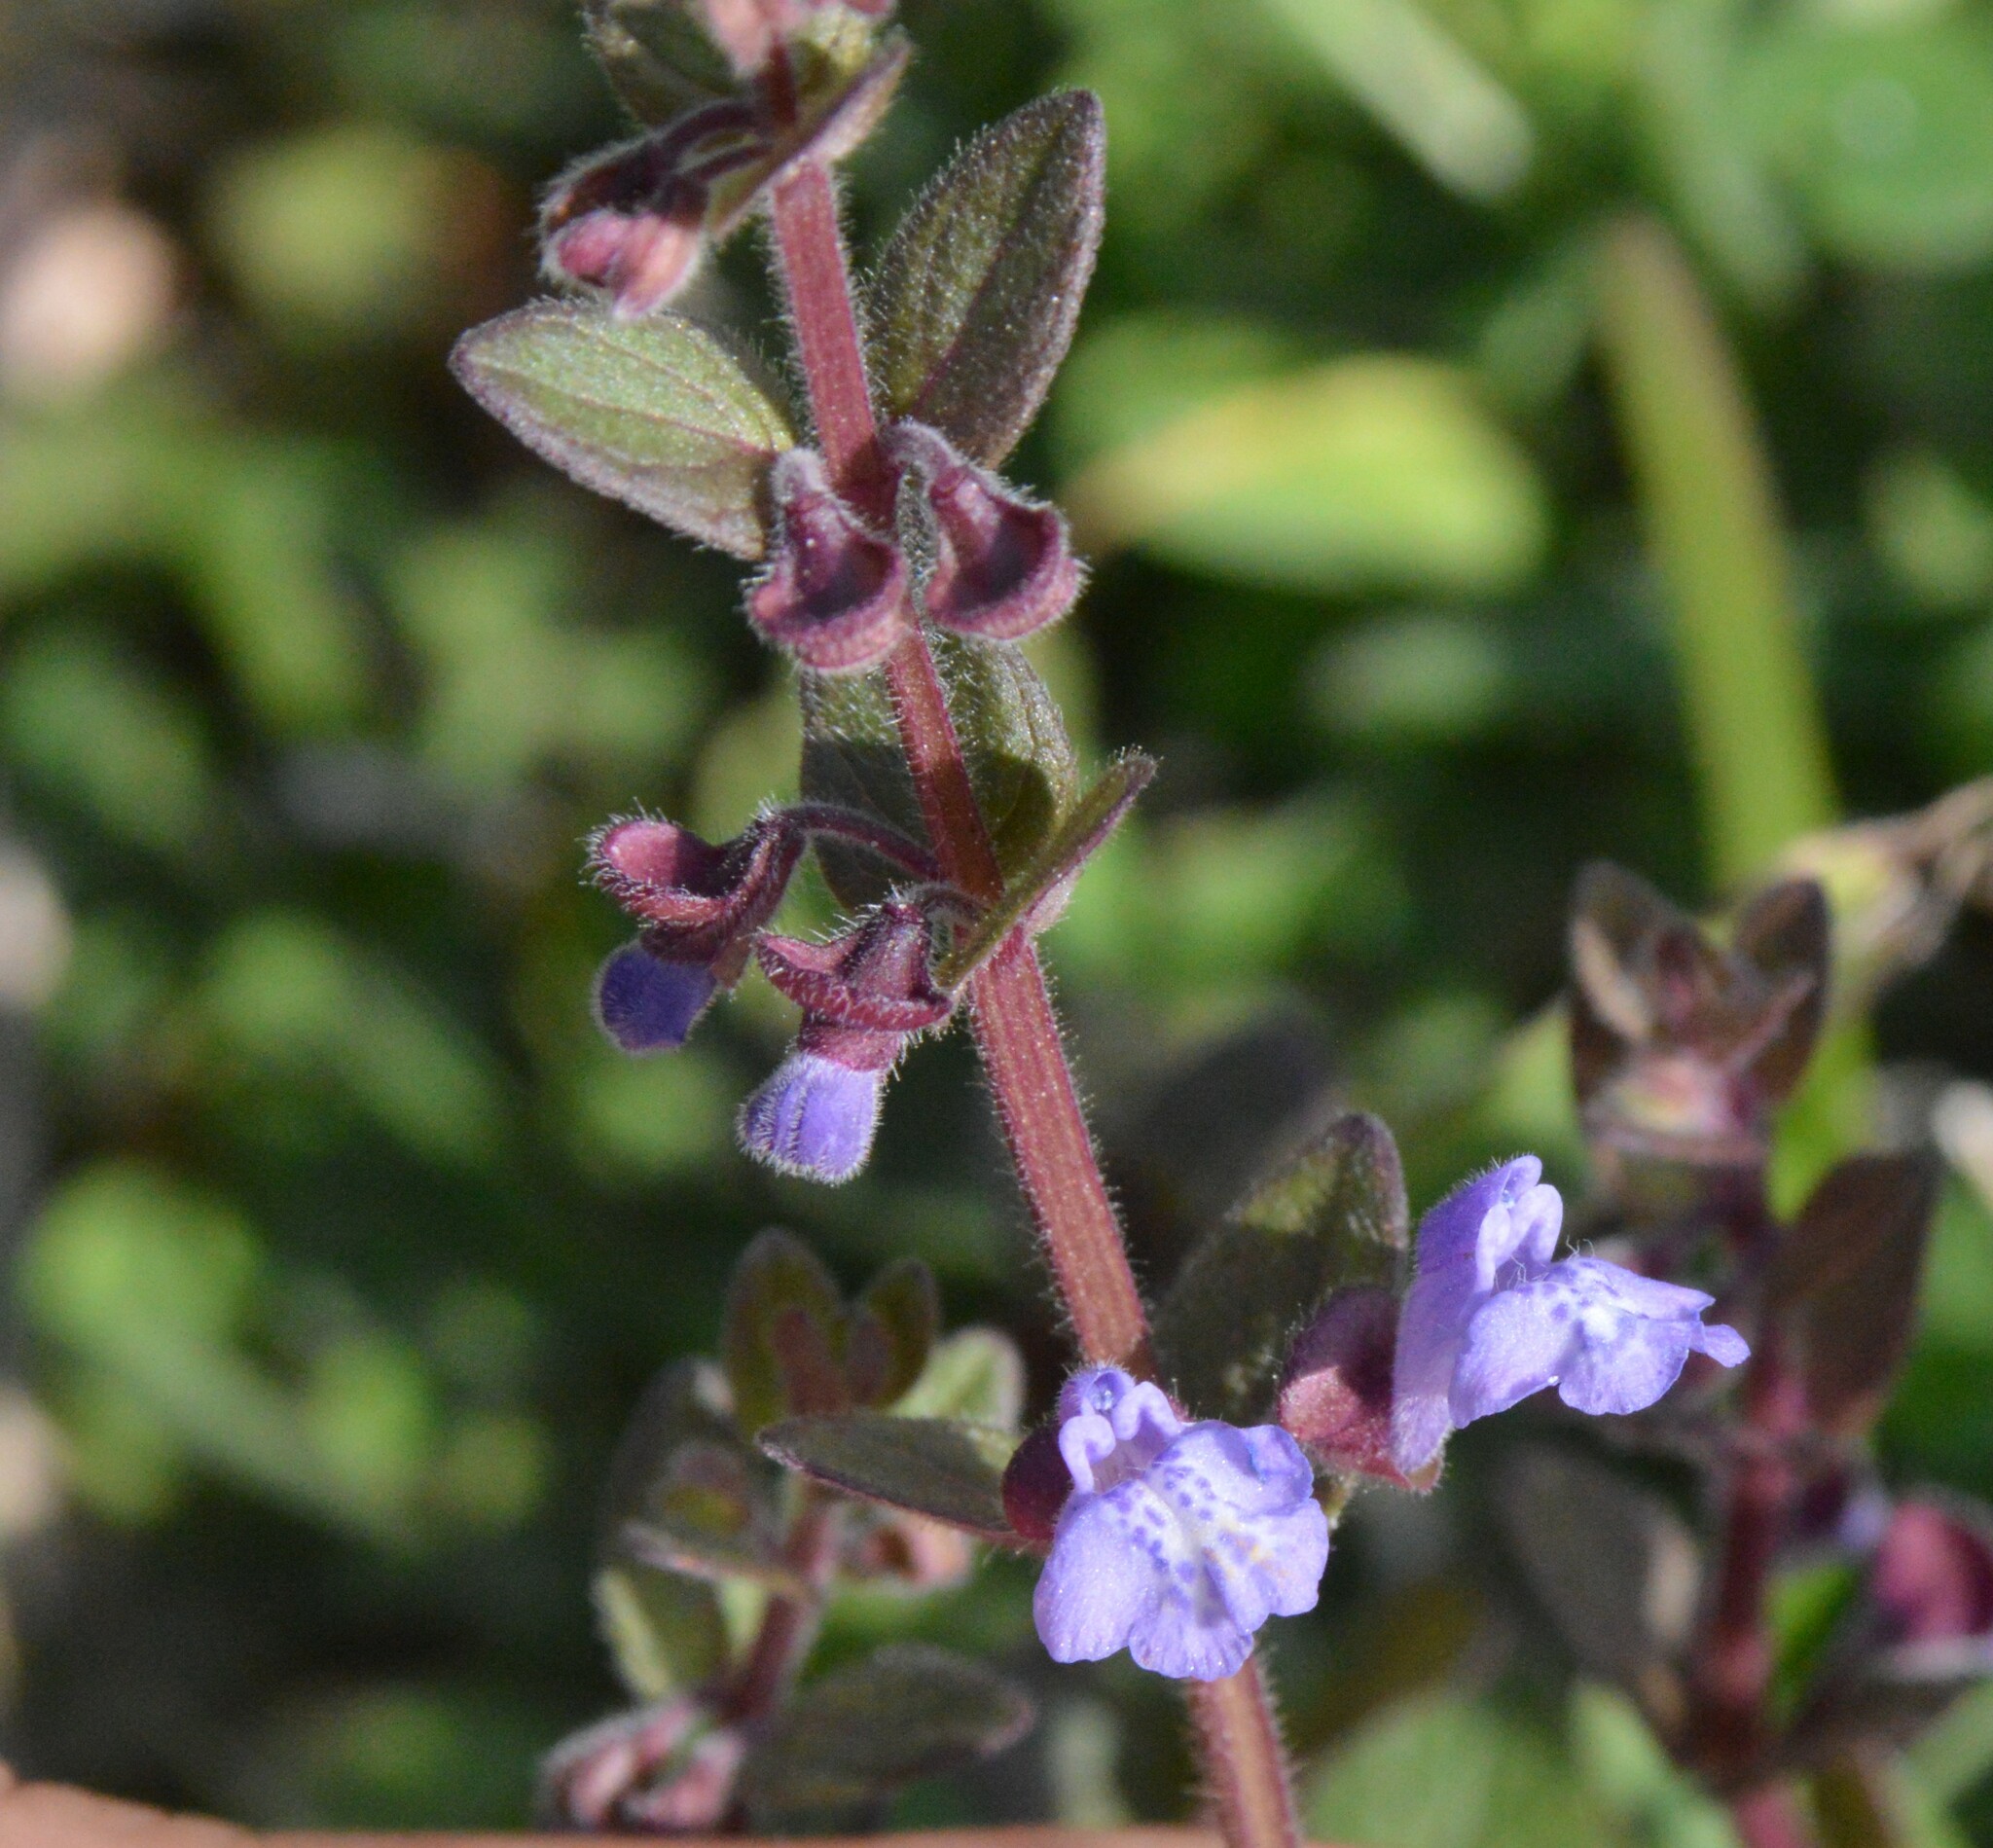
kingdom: Plantae
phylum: Tracheophyta
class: Magnoliopsida
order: Lamiales
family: Lamiaceae
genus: Scutellaria
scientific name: Scutellaria parvula
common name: Little scullcap
